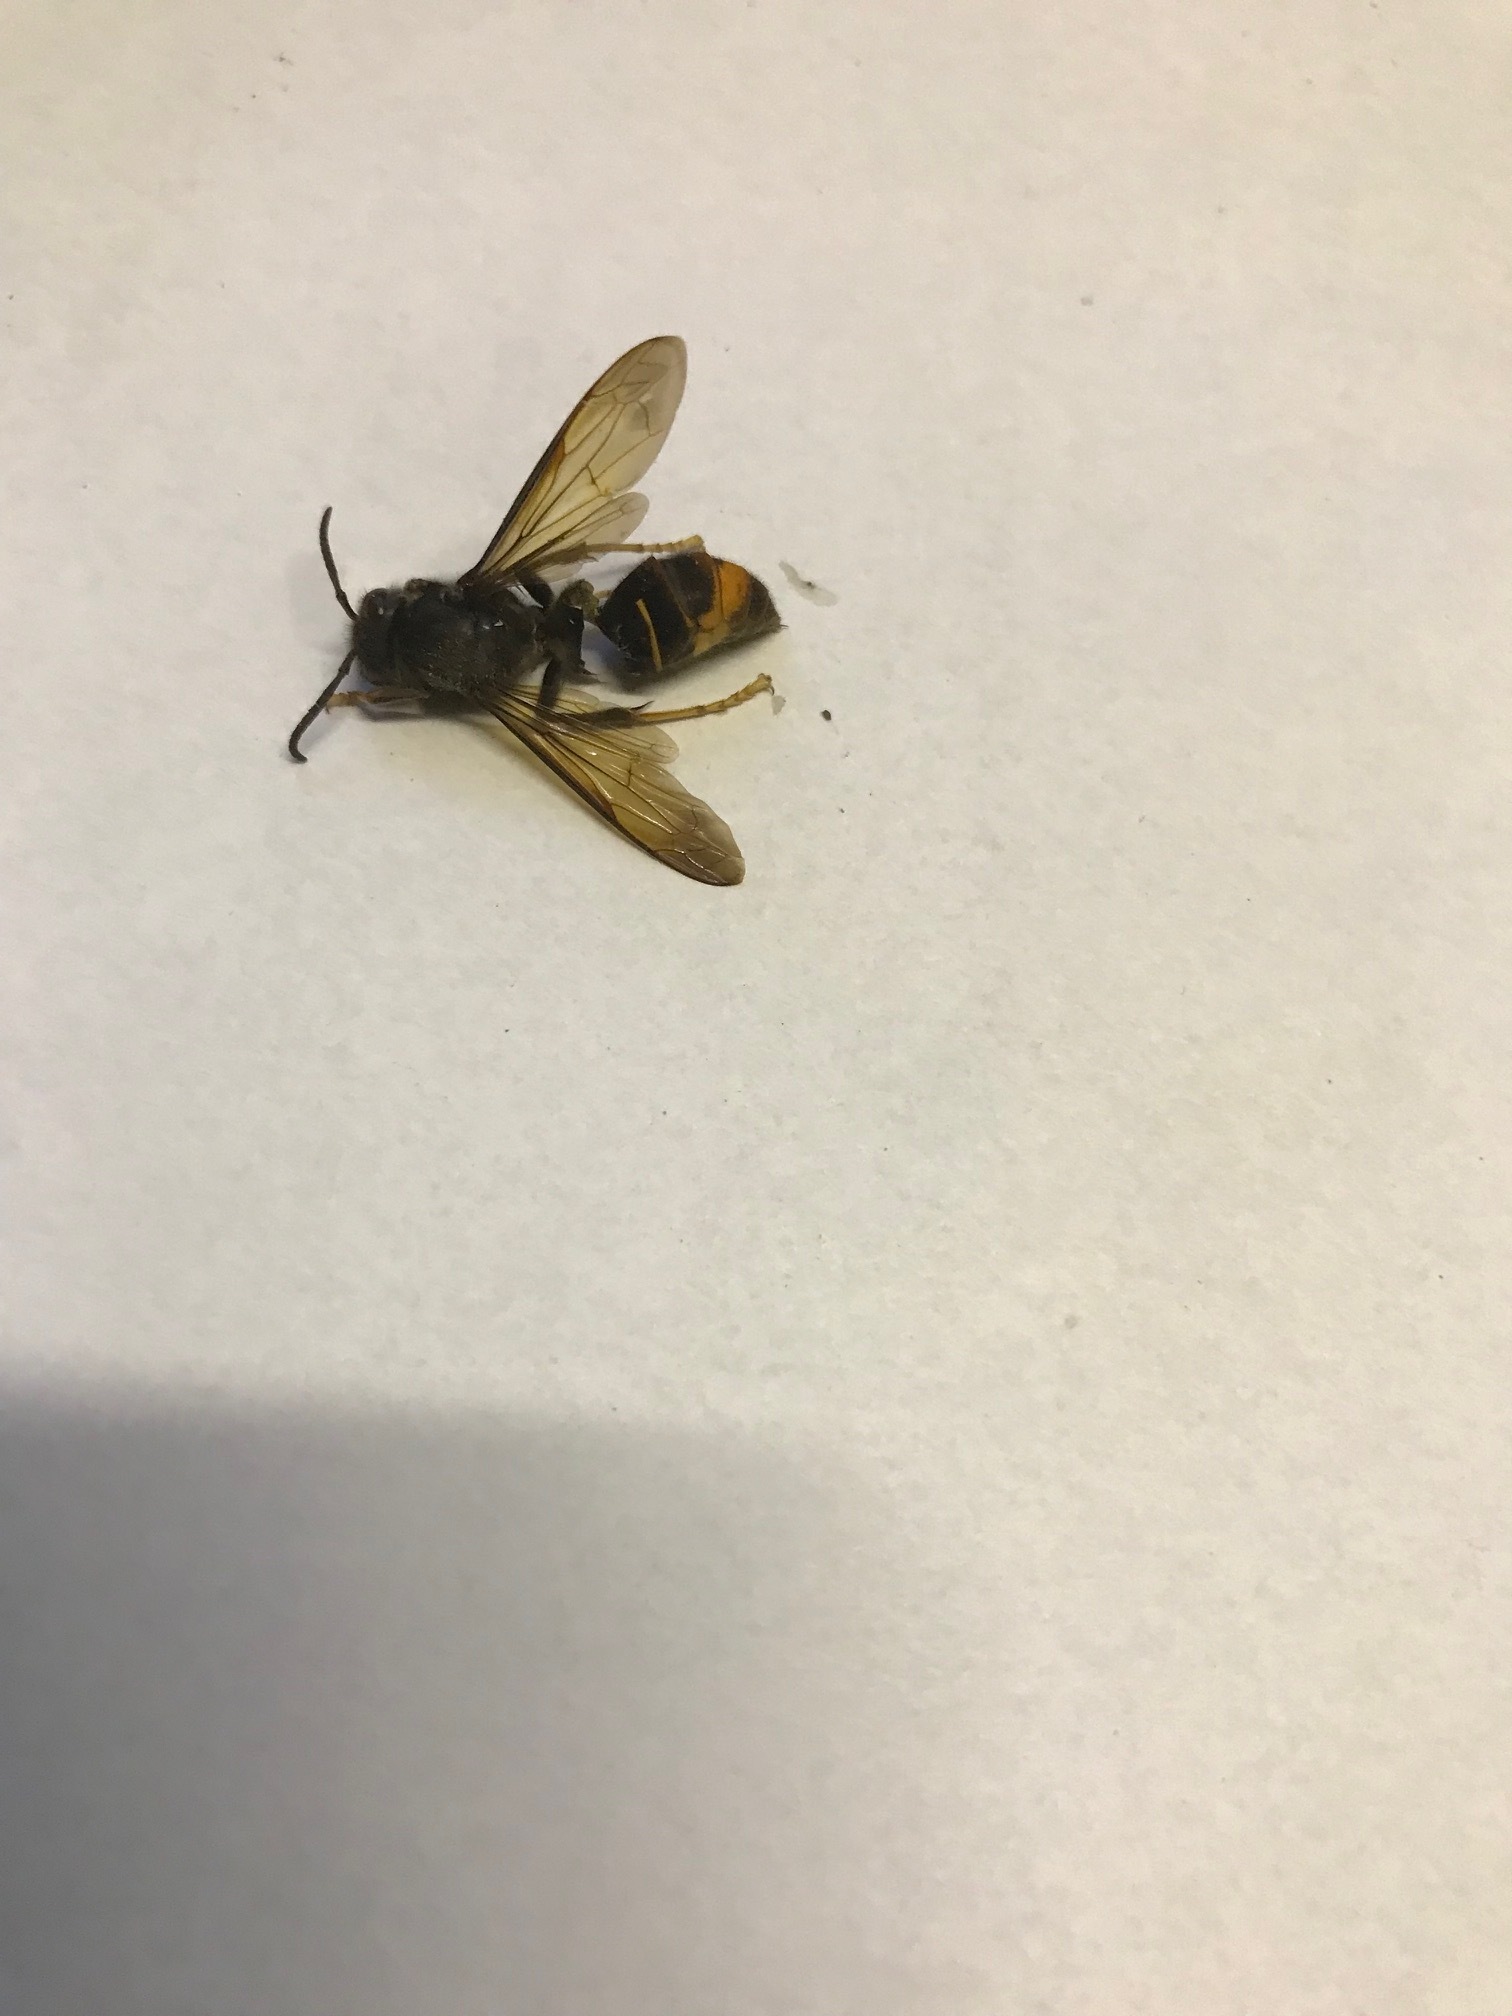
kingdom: Animalia
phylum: Arthropoda
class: Insecta
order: Hymenoptera
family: Vespidae
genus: Vespa
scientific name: Vespa velutina
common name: Asian hornet
